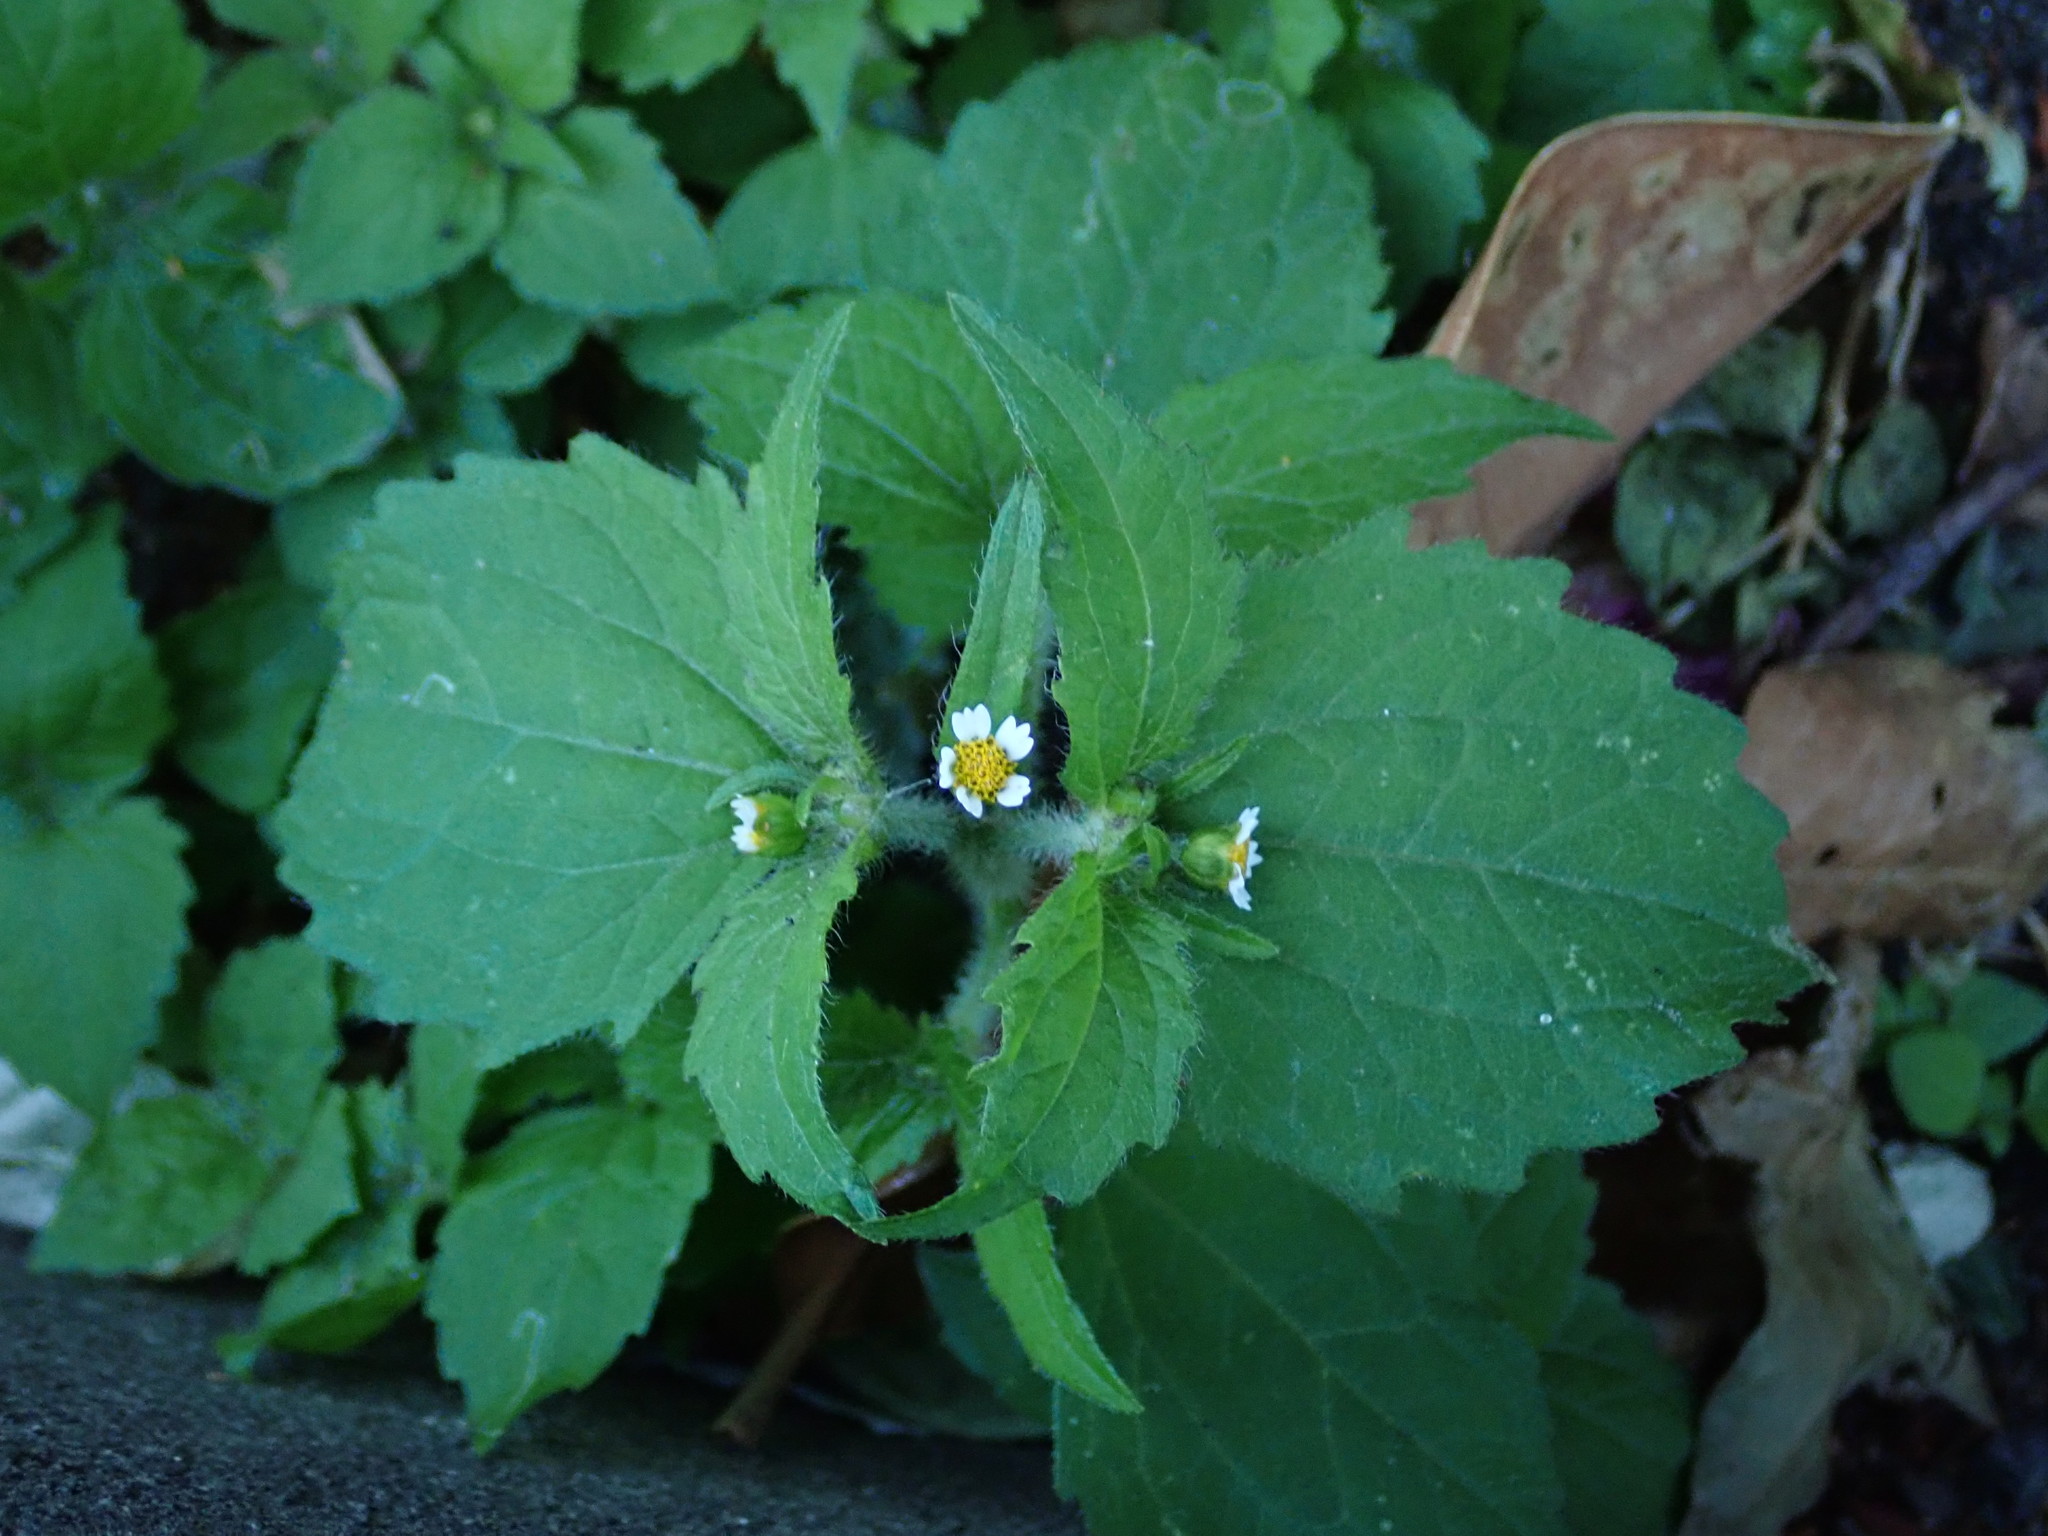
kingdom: Plantae
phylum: Tracheophyta
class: Magnoliopsida
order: Asterales
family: Asteraceae
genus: Galinsoga
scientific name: Galinsoga quadriradiata
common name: Shaggy soldier
